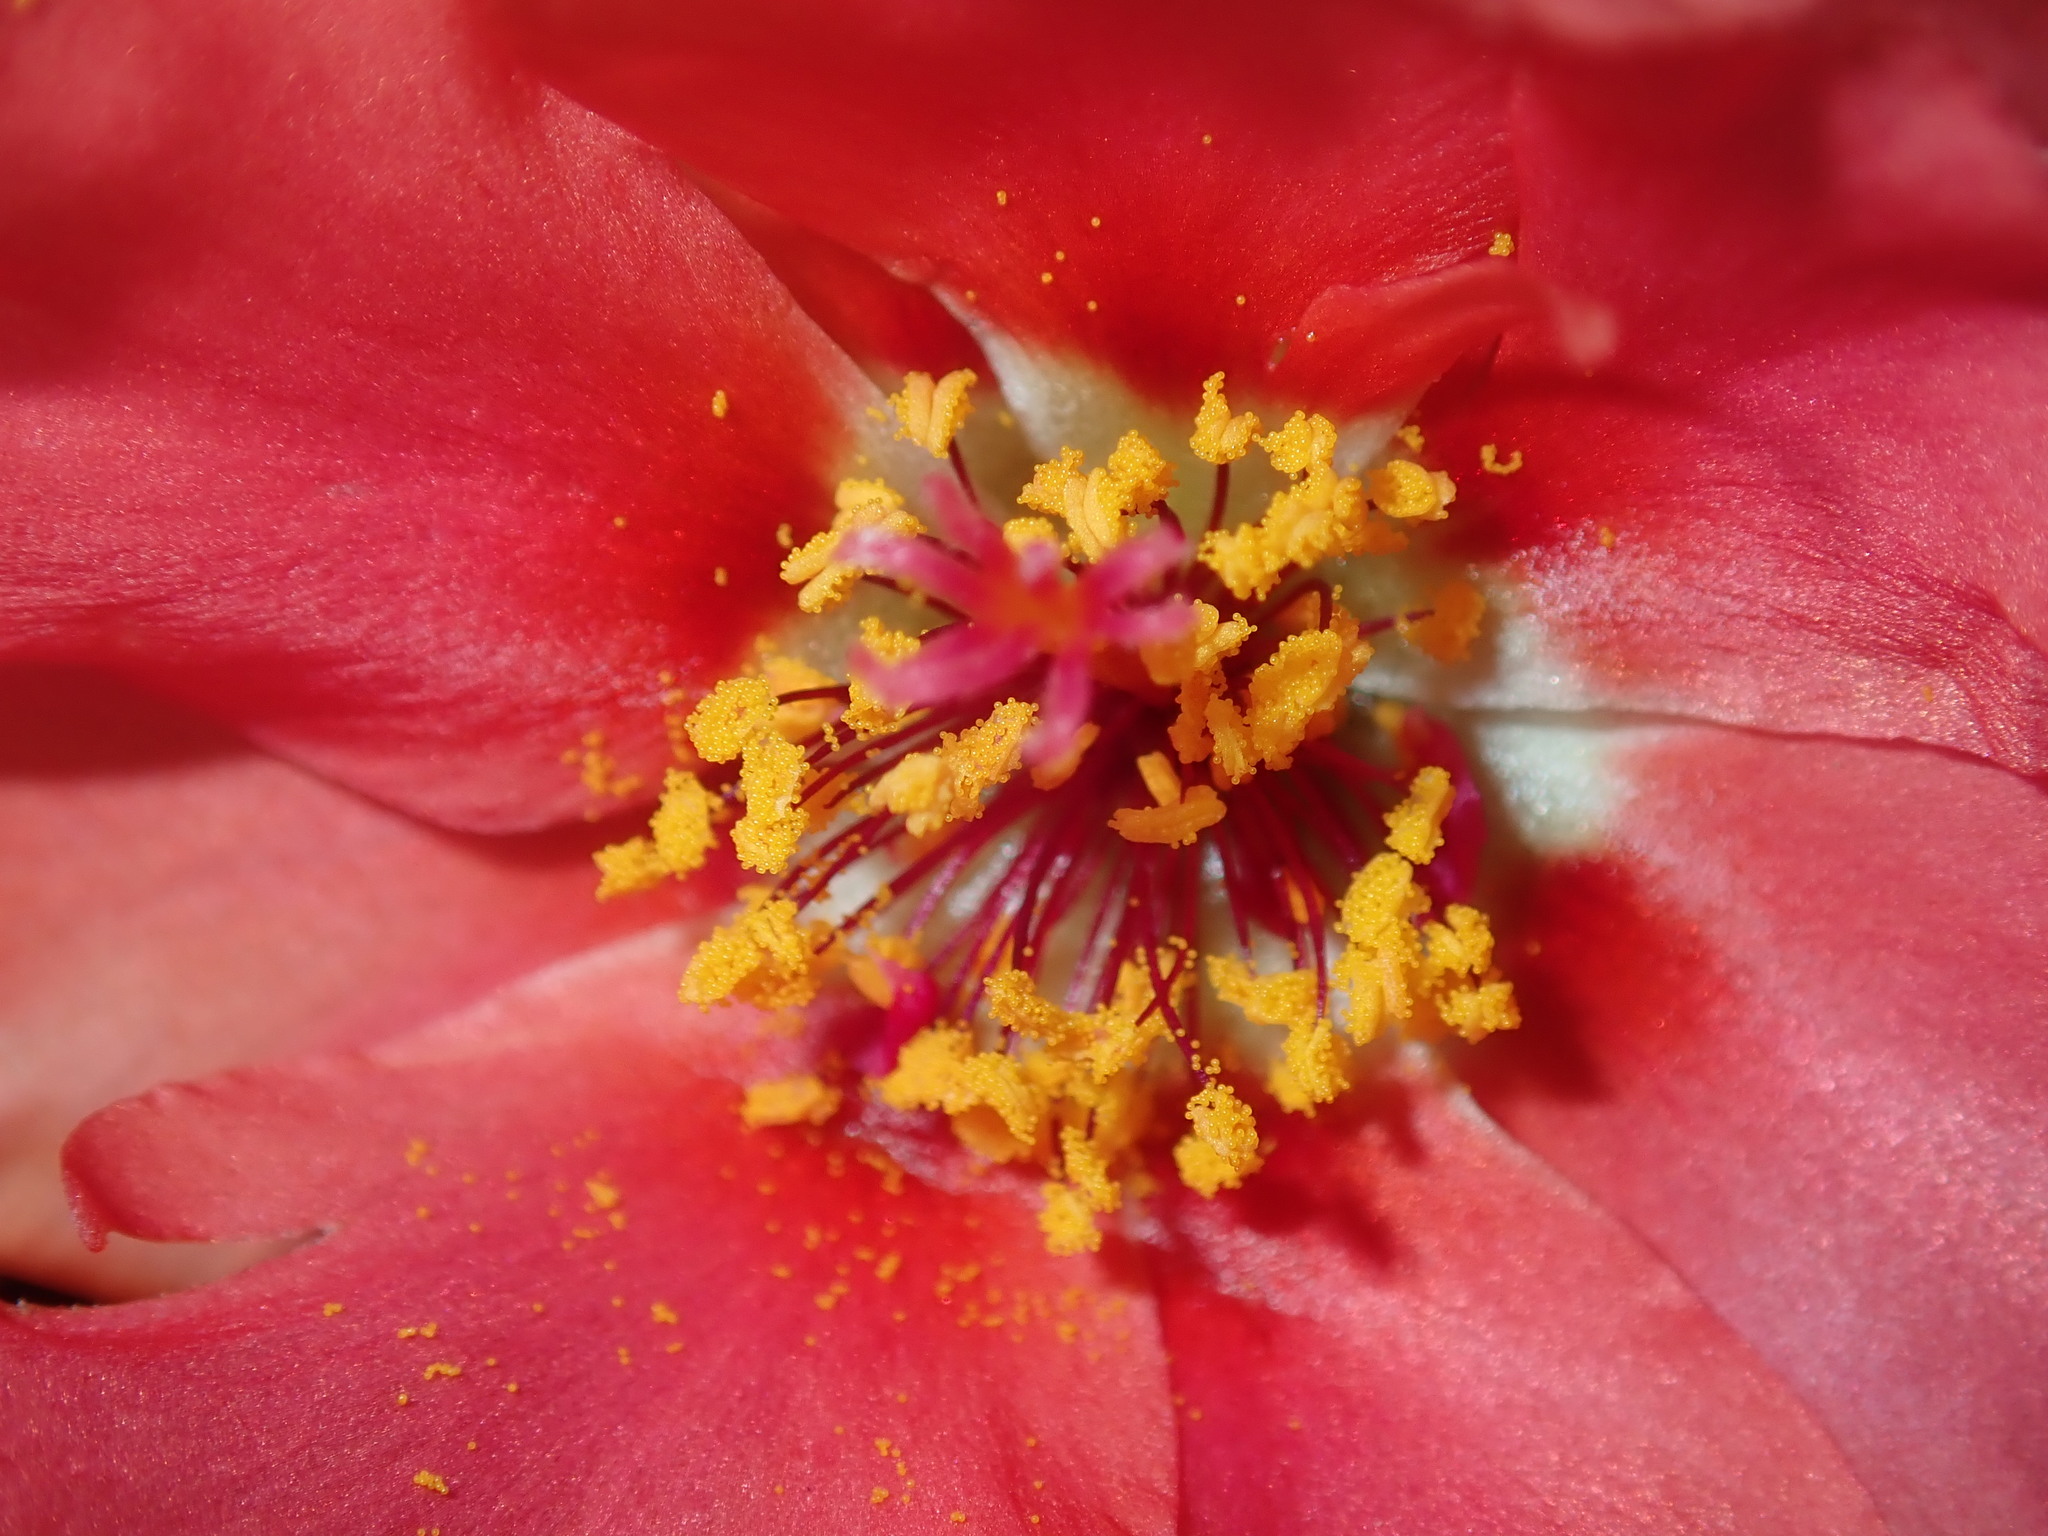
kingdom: Plantae
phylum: Tracheophyta
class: Magnoliopsida
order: Caryophyllales
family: Portulacaceae
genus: Portulaca
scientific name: Portulaca grandiflora
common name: Moss-rose
